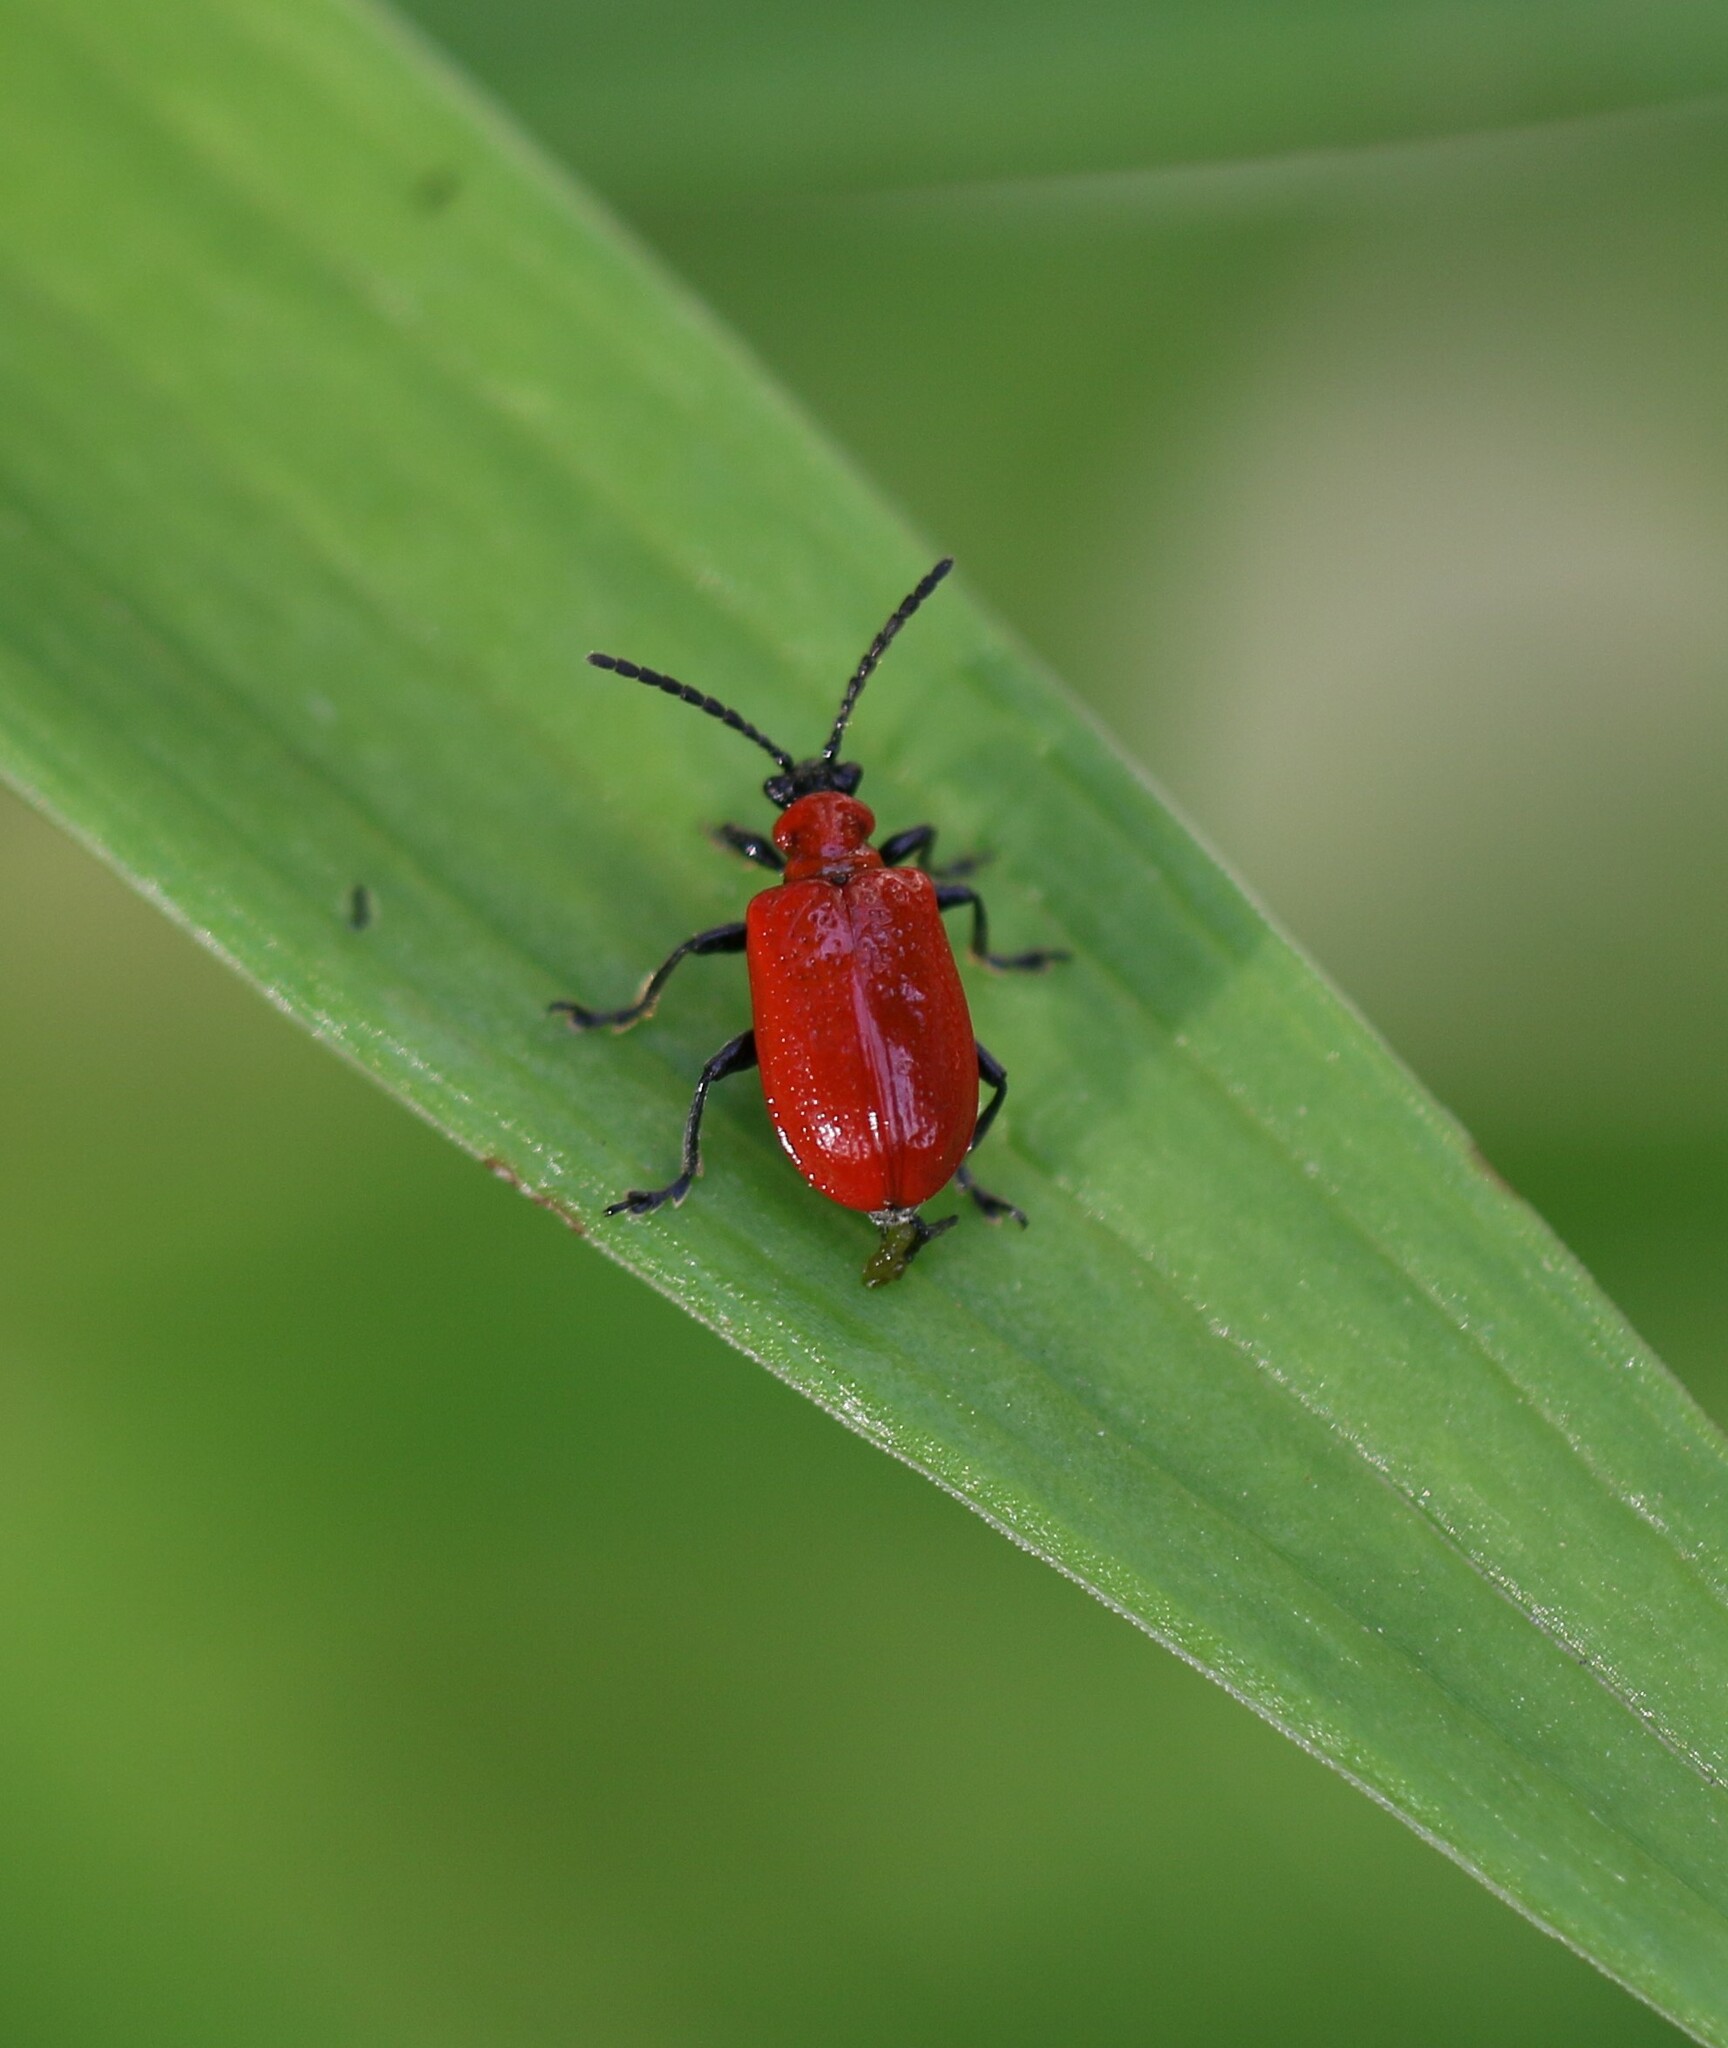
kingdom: Animalia
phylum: Arthropoda
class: Insecta
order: Coleoptera
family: Chrysomelidae
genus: Lilioceris
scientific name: Lilioceris lilii
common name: Lily beetle
